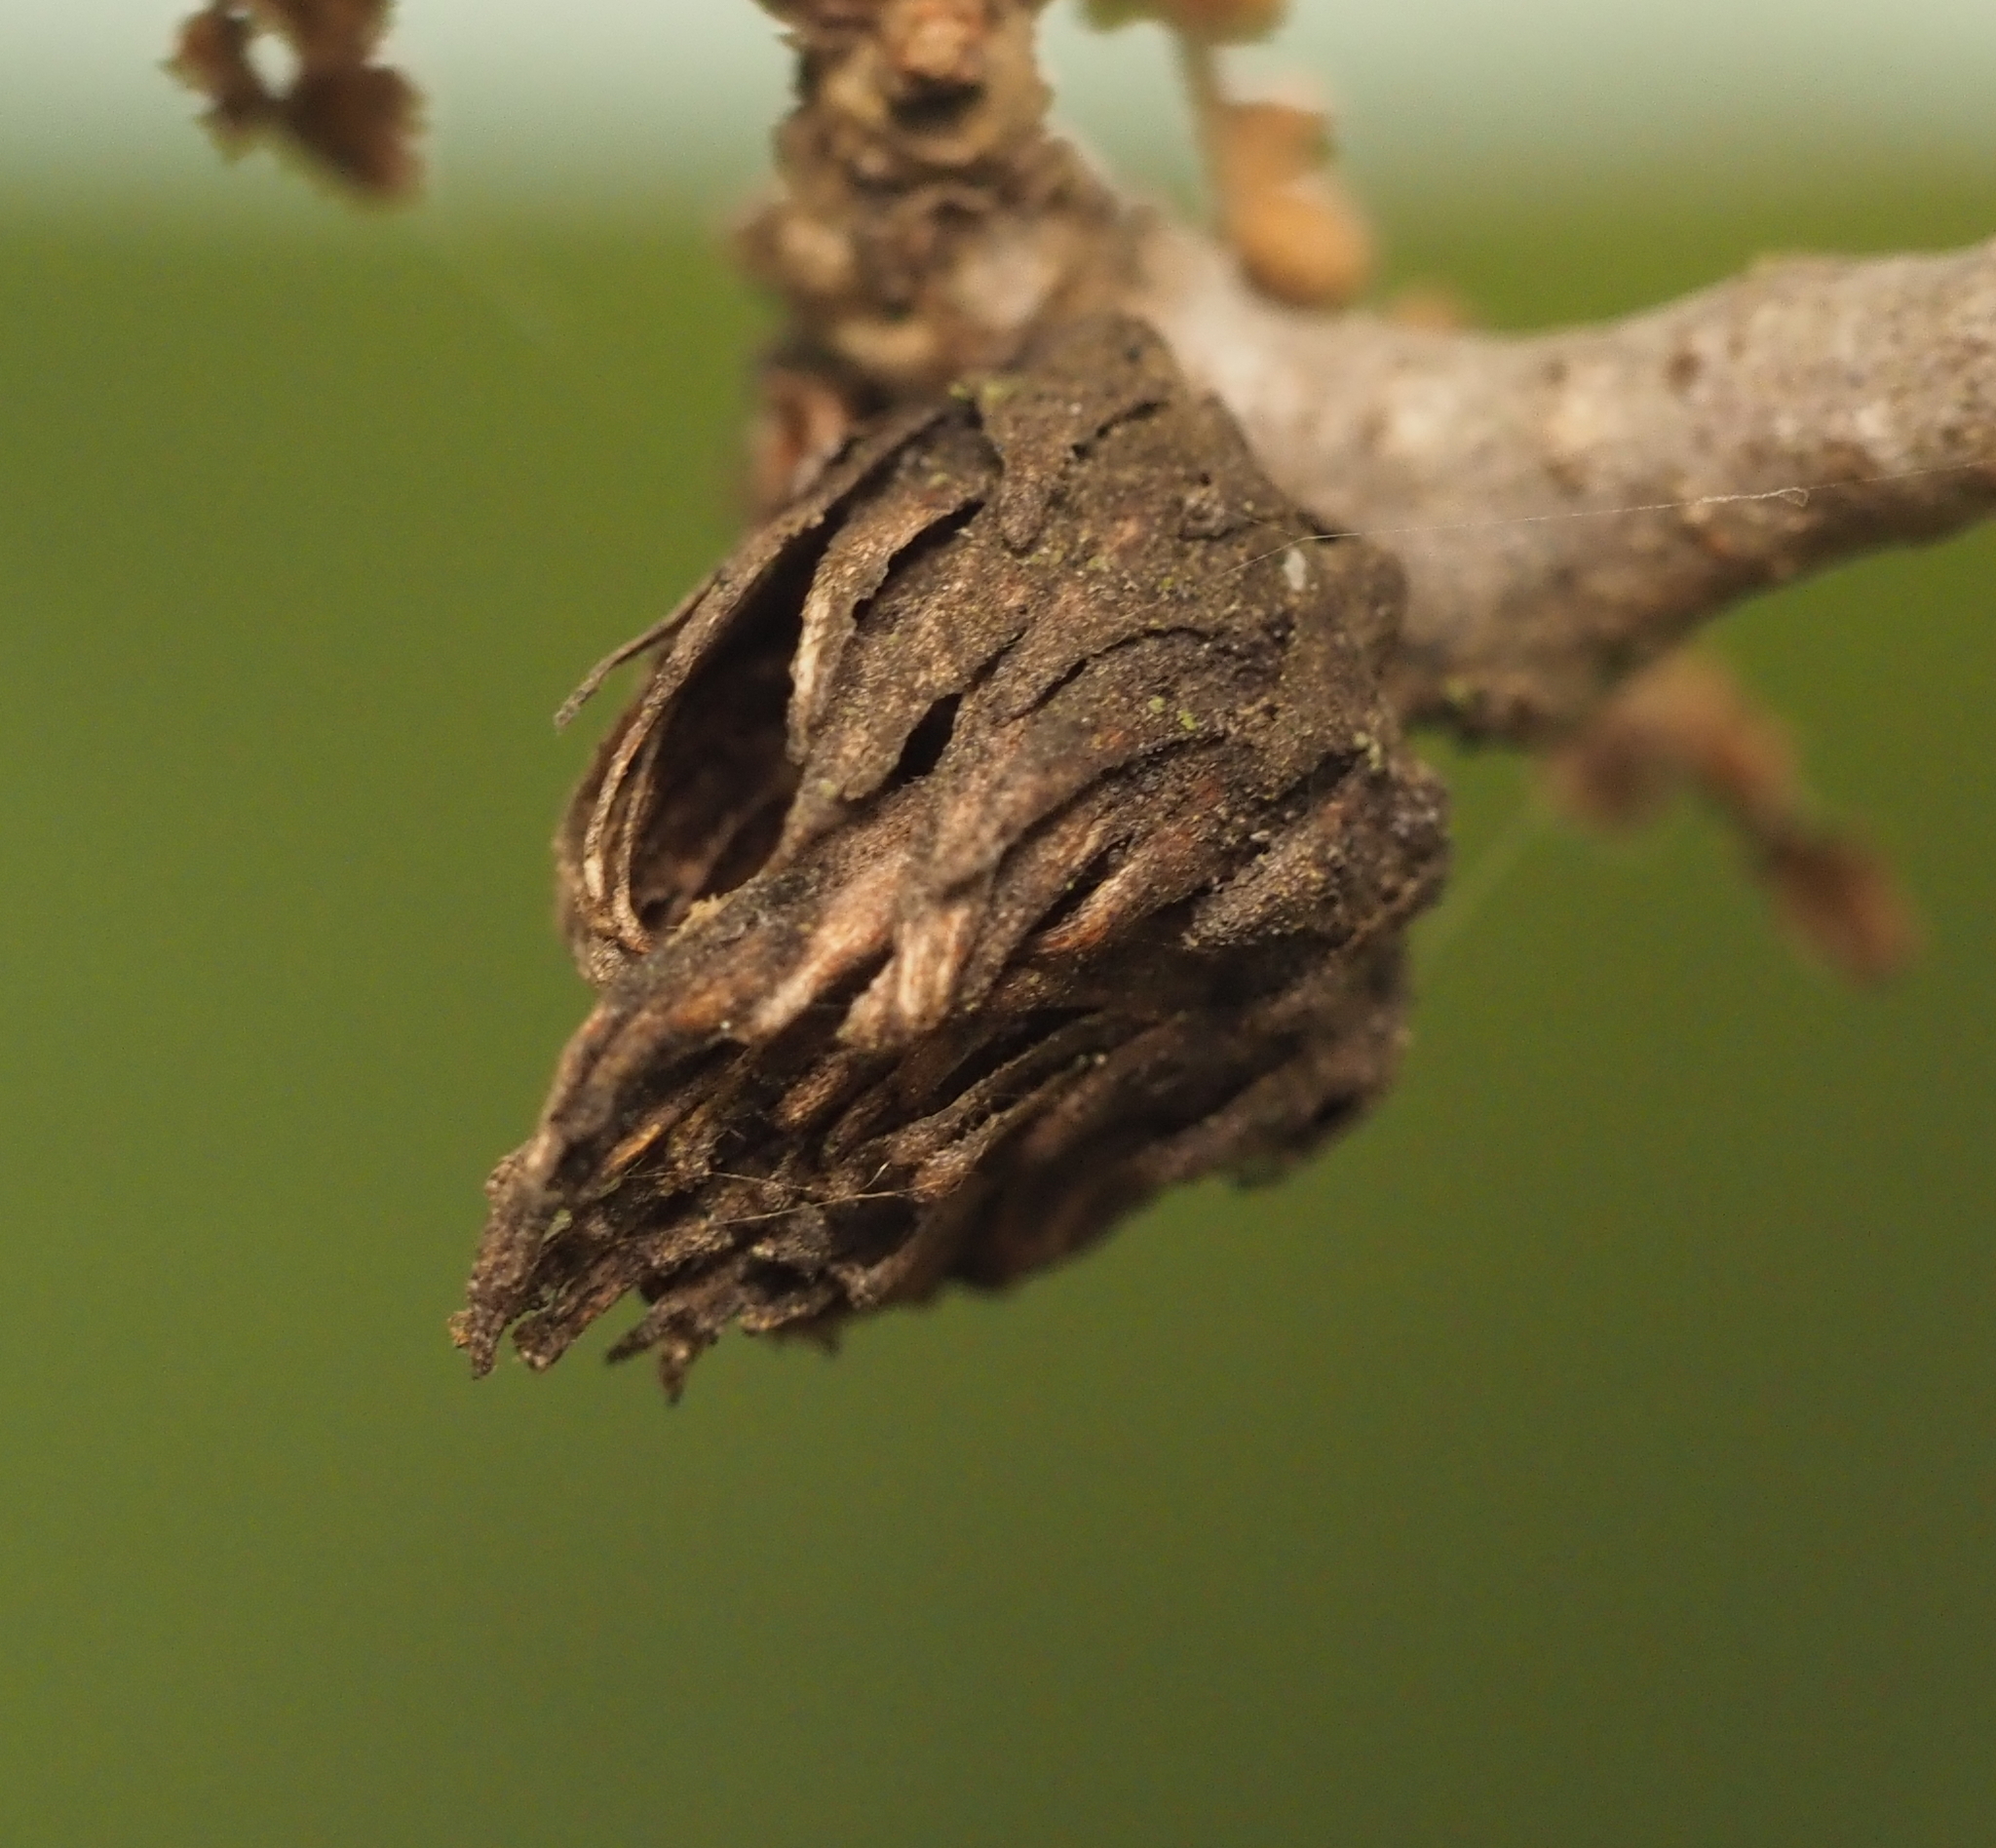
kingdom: Animalia
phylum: Arthropoda
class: Insecta
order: Hymenoptera
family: Cynipidae
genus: Andricus
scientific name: Andricus quercusfoliatus
